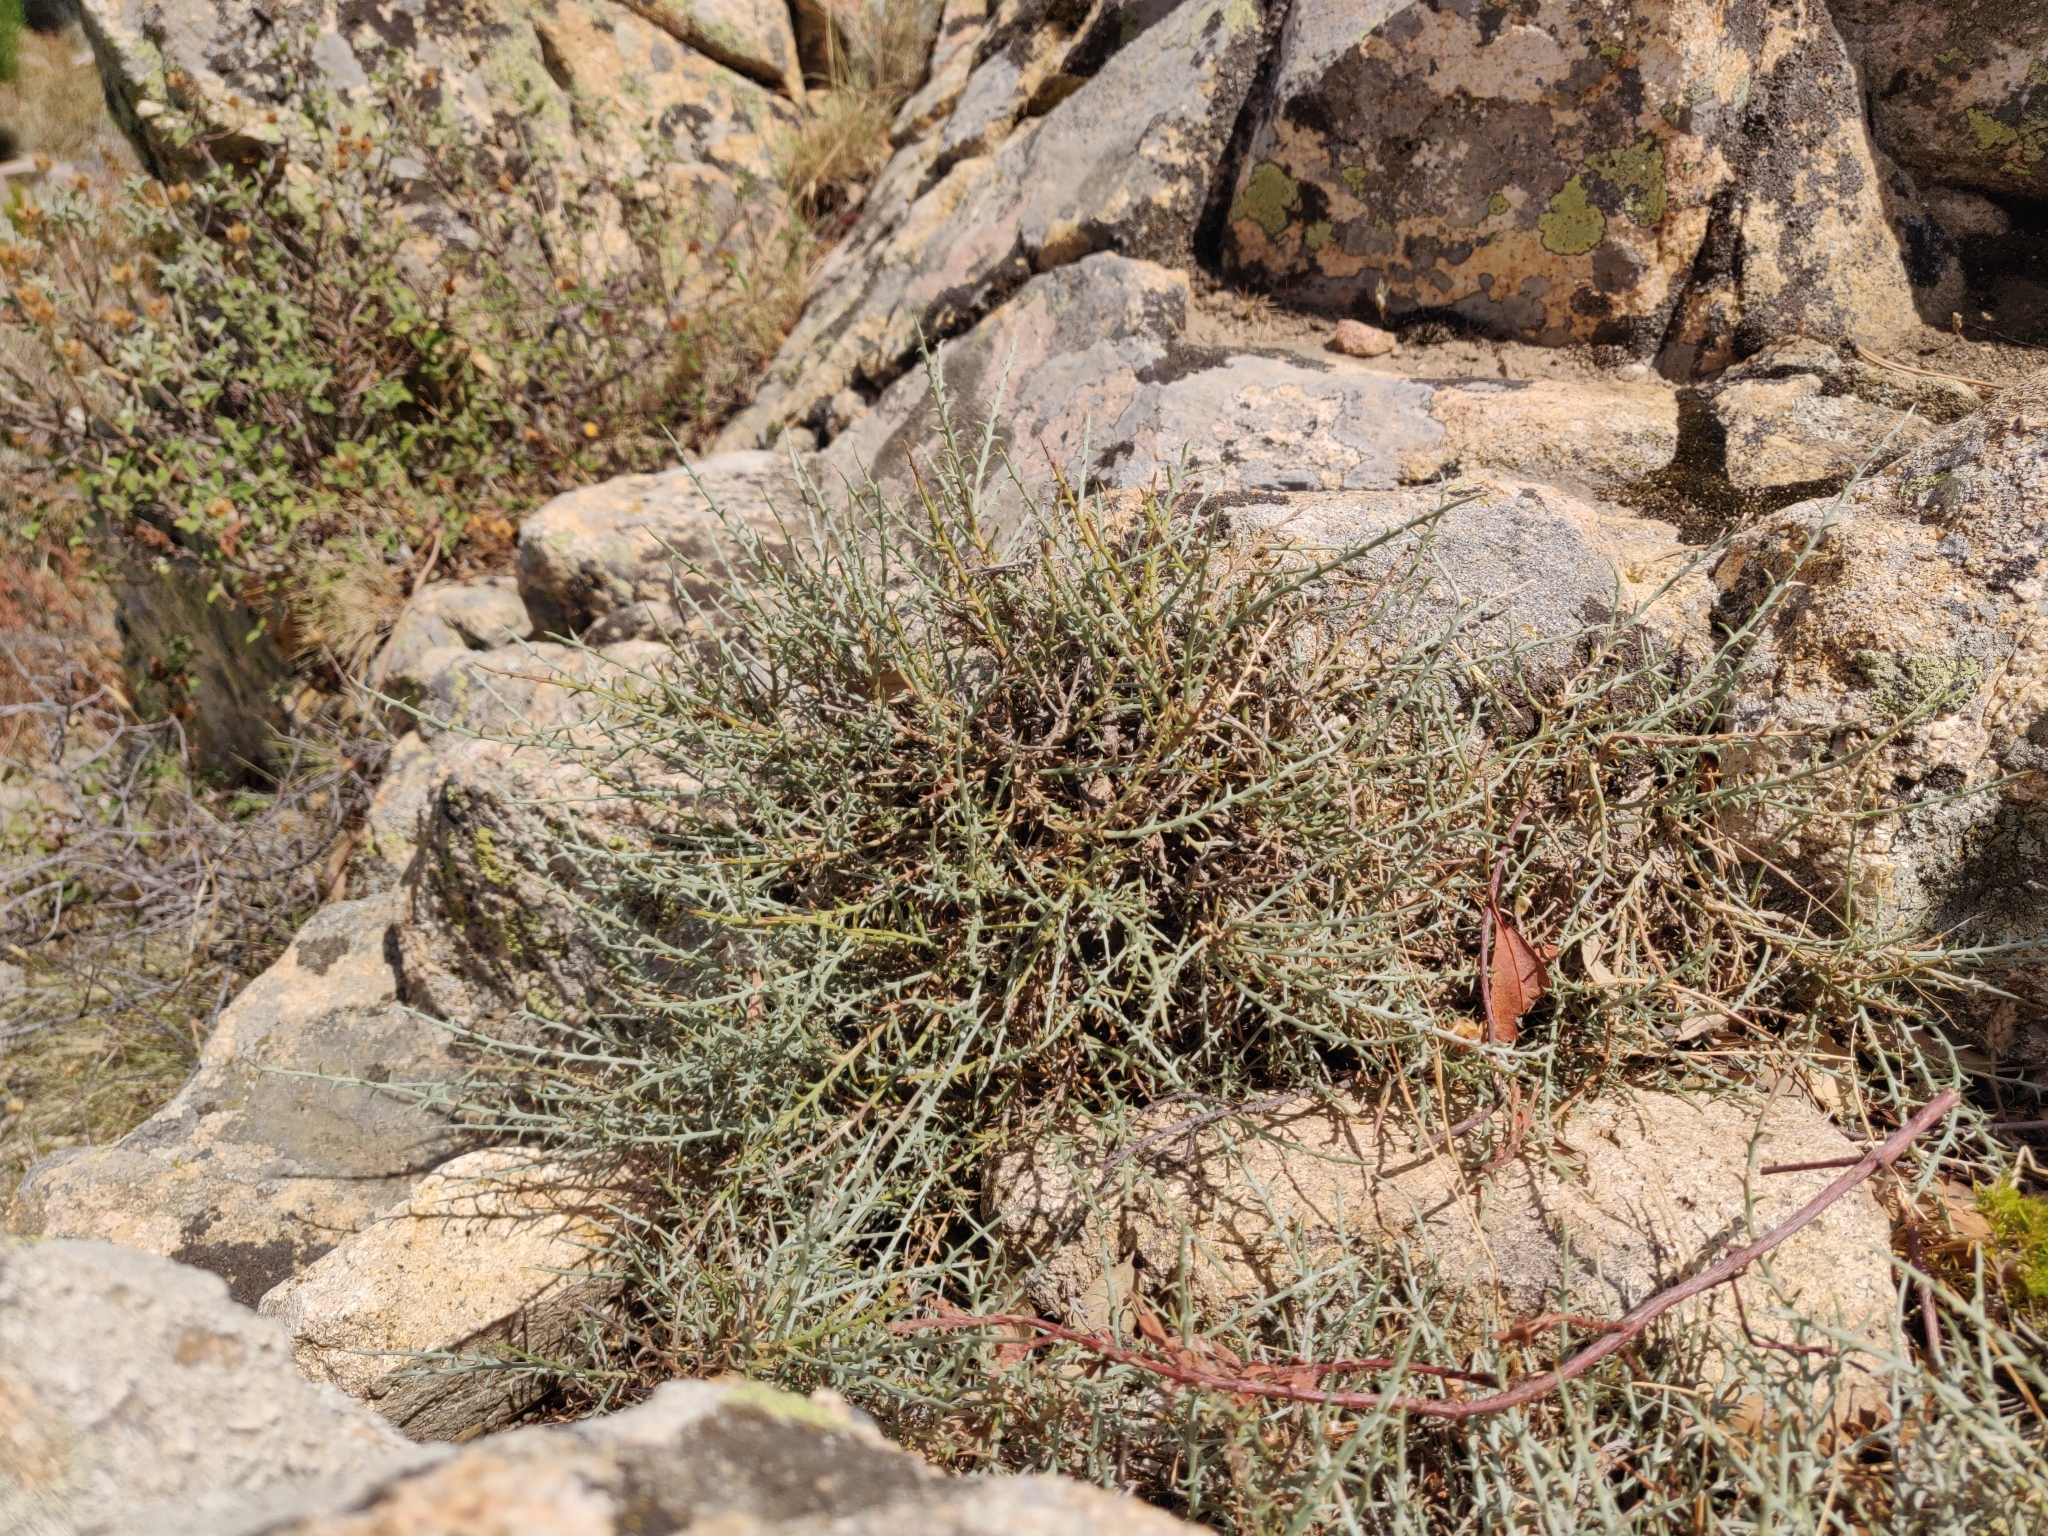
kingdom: Plantae
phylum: Tracheophyta
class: Magnoliopsida
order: Fabales
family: Fabaceae
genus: Genista
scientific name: Genista corsica
